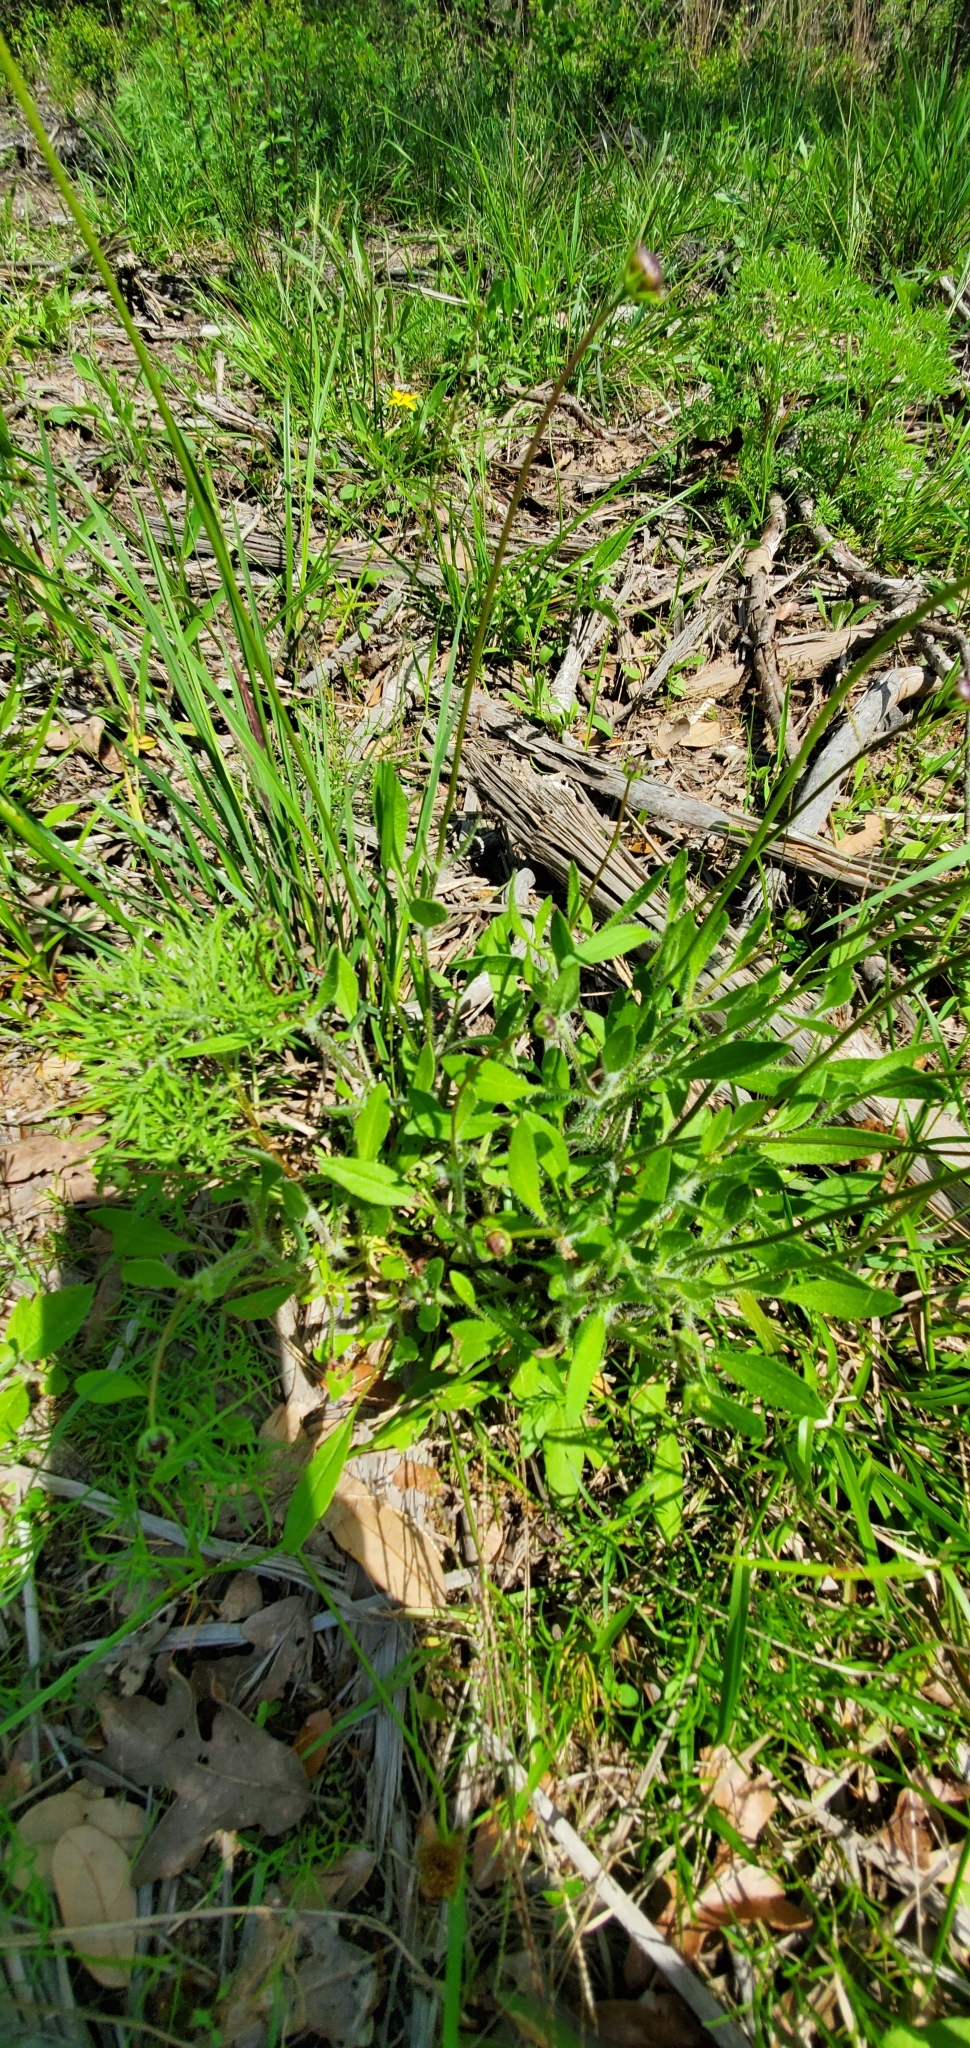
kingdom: Plantae
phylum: Tracheophyta
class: Magnoliopsida
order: Asterales
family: Asteraceae
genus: Coreopsis
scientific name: Coreopsis nuecensis
